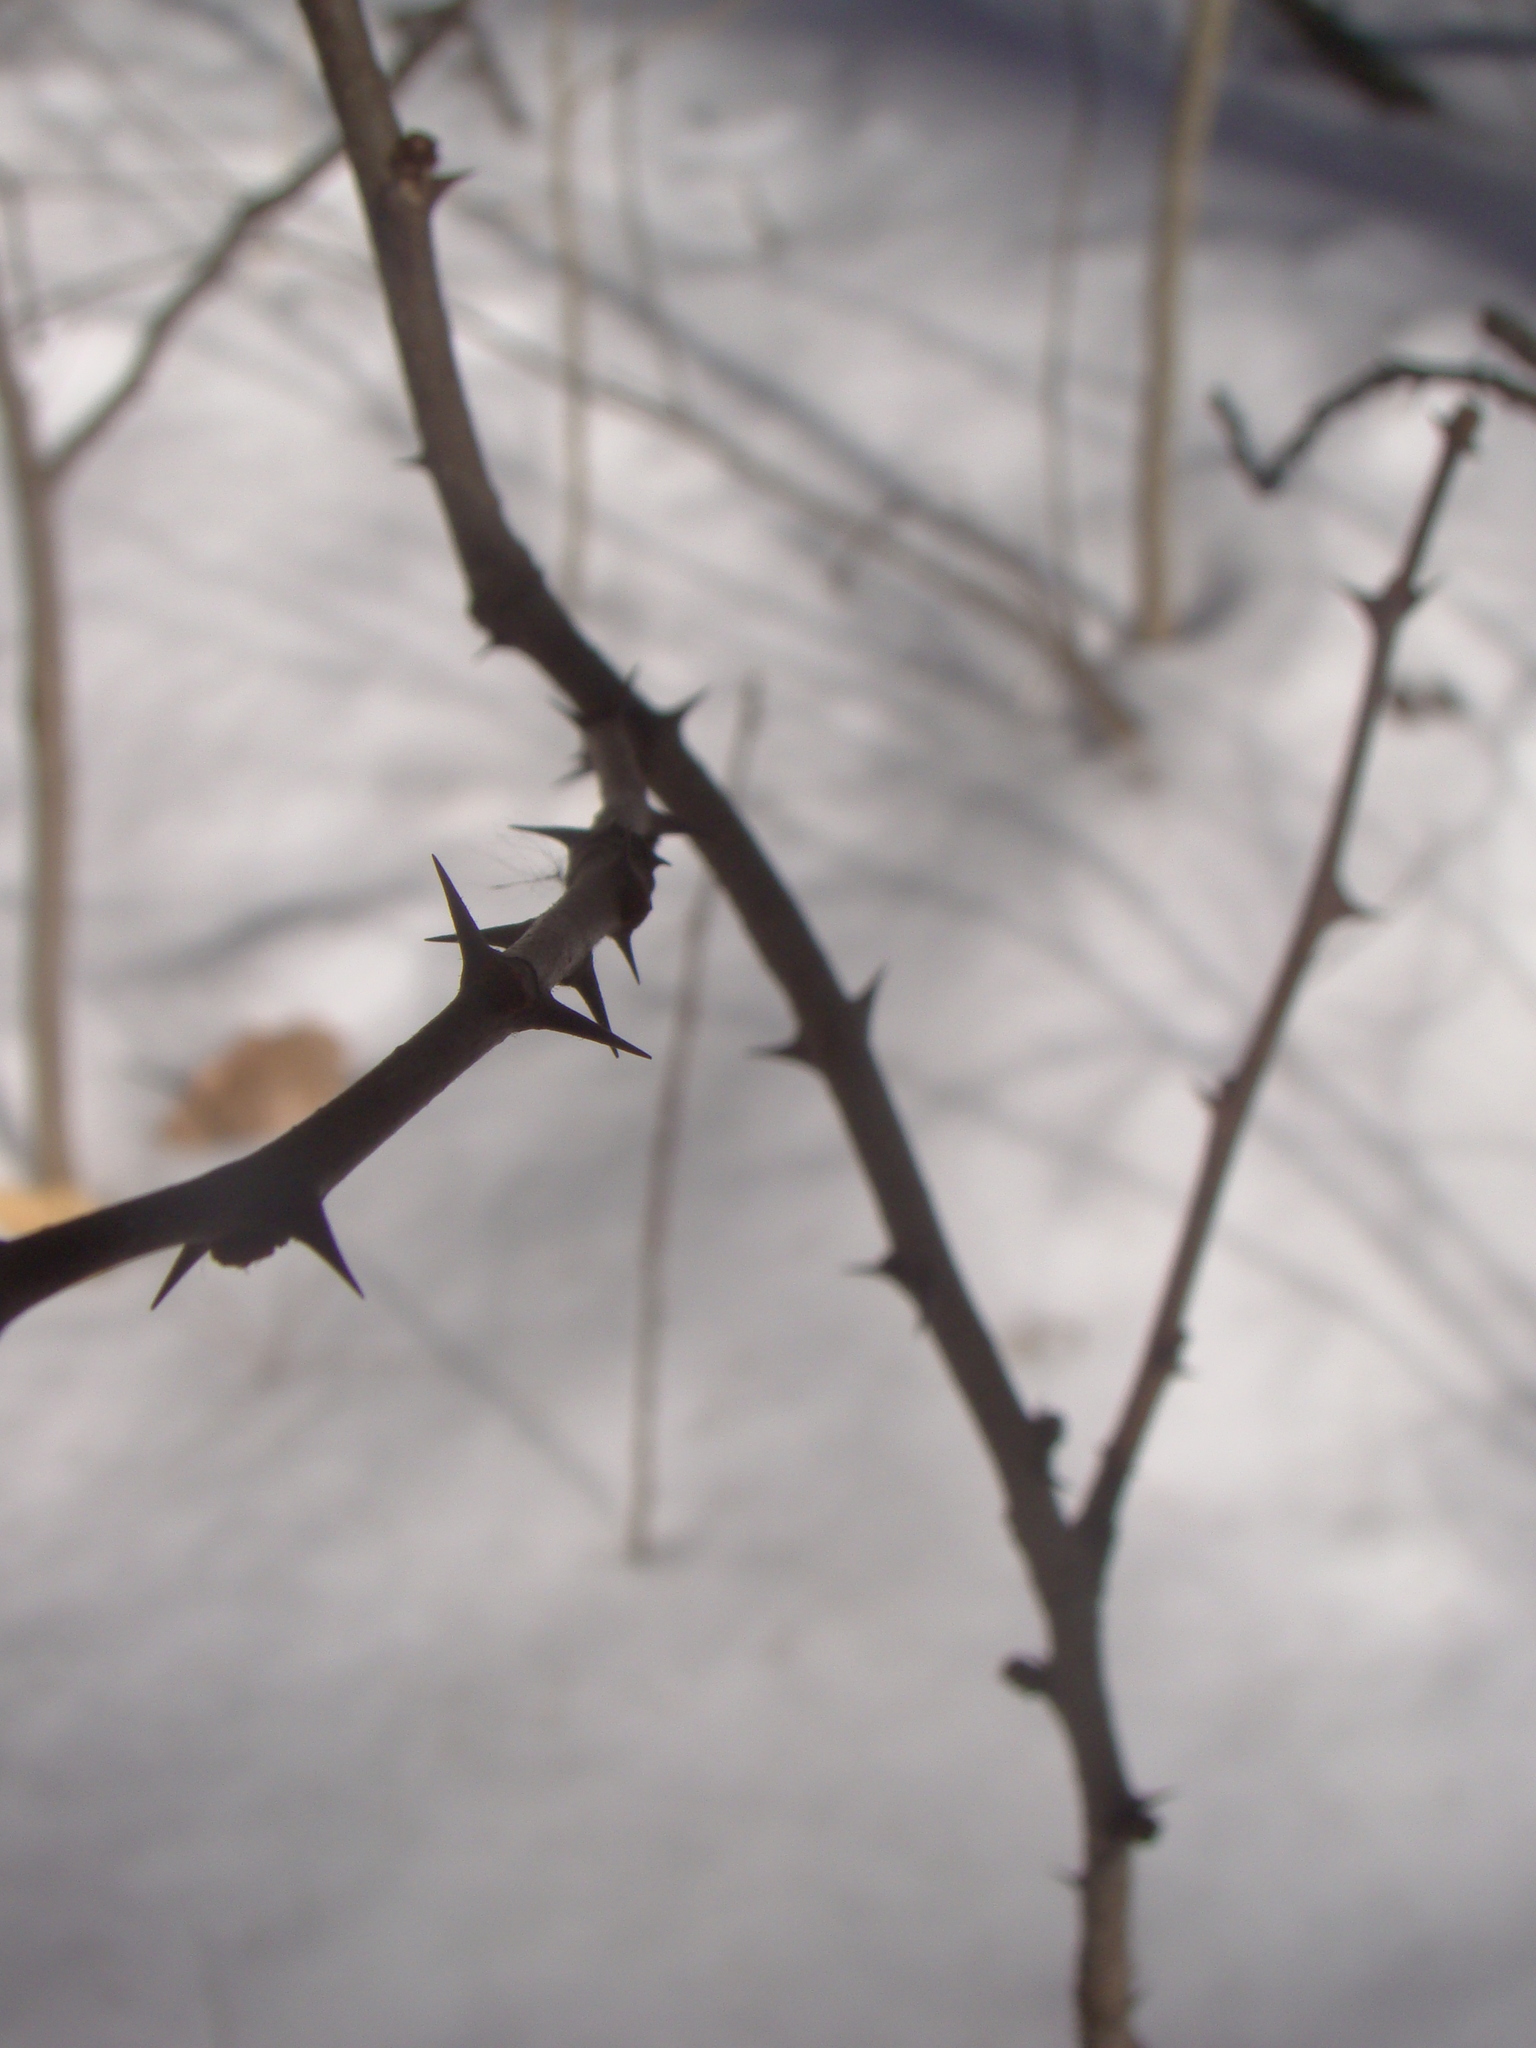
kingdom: Plantae
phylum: Tracheophyta
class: Magnoliopsida
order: Sapindales
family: Rutaceae
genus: Zanthoxylum
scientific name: Zanthoxylum americanum
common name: Northern prickly-ash
